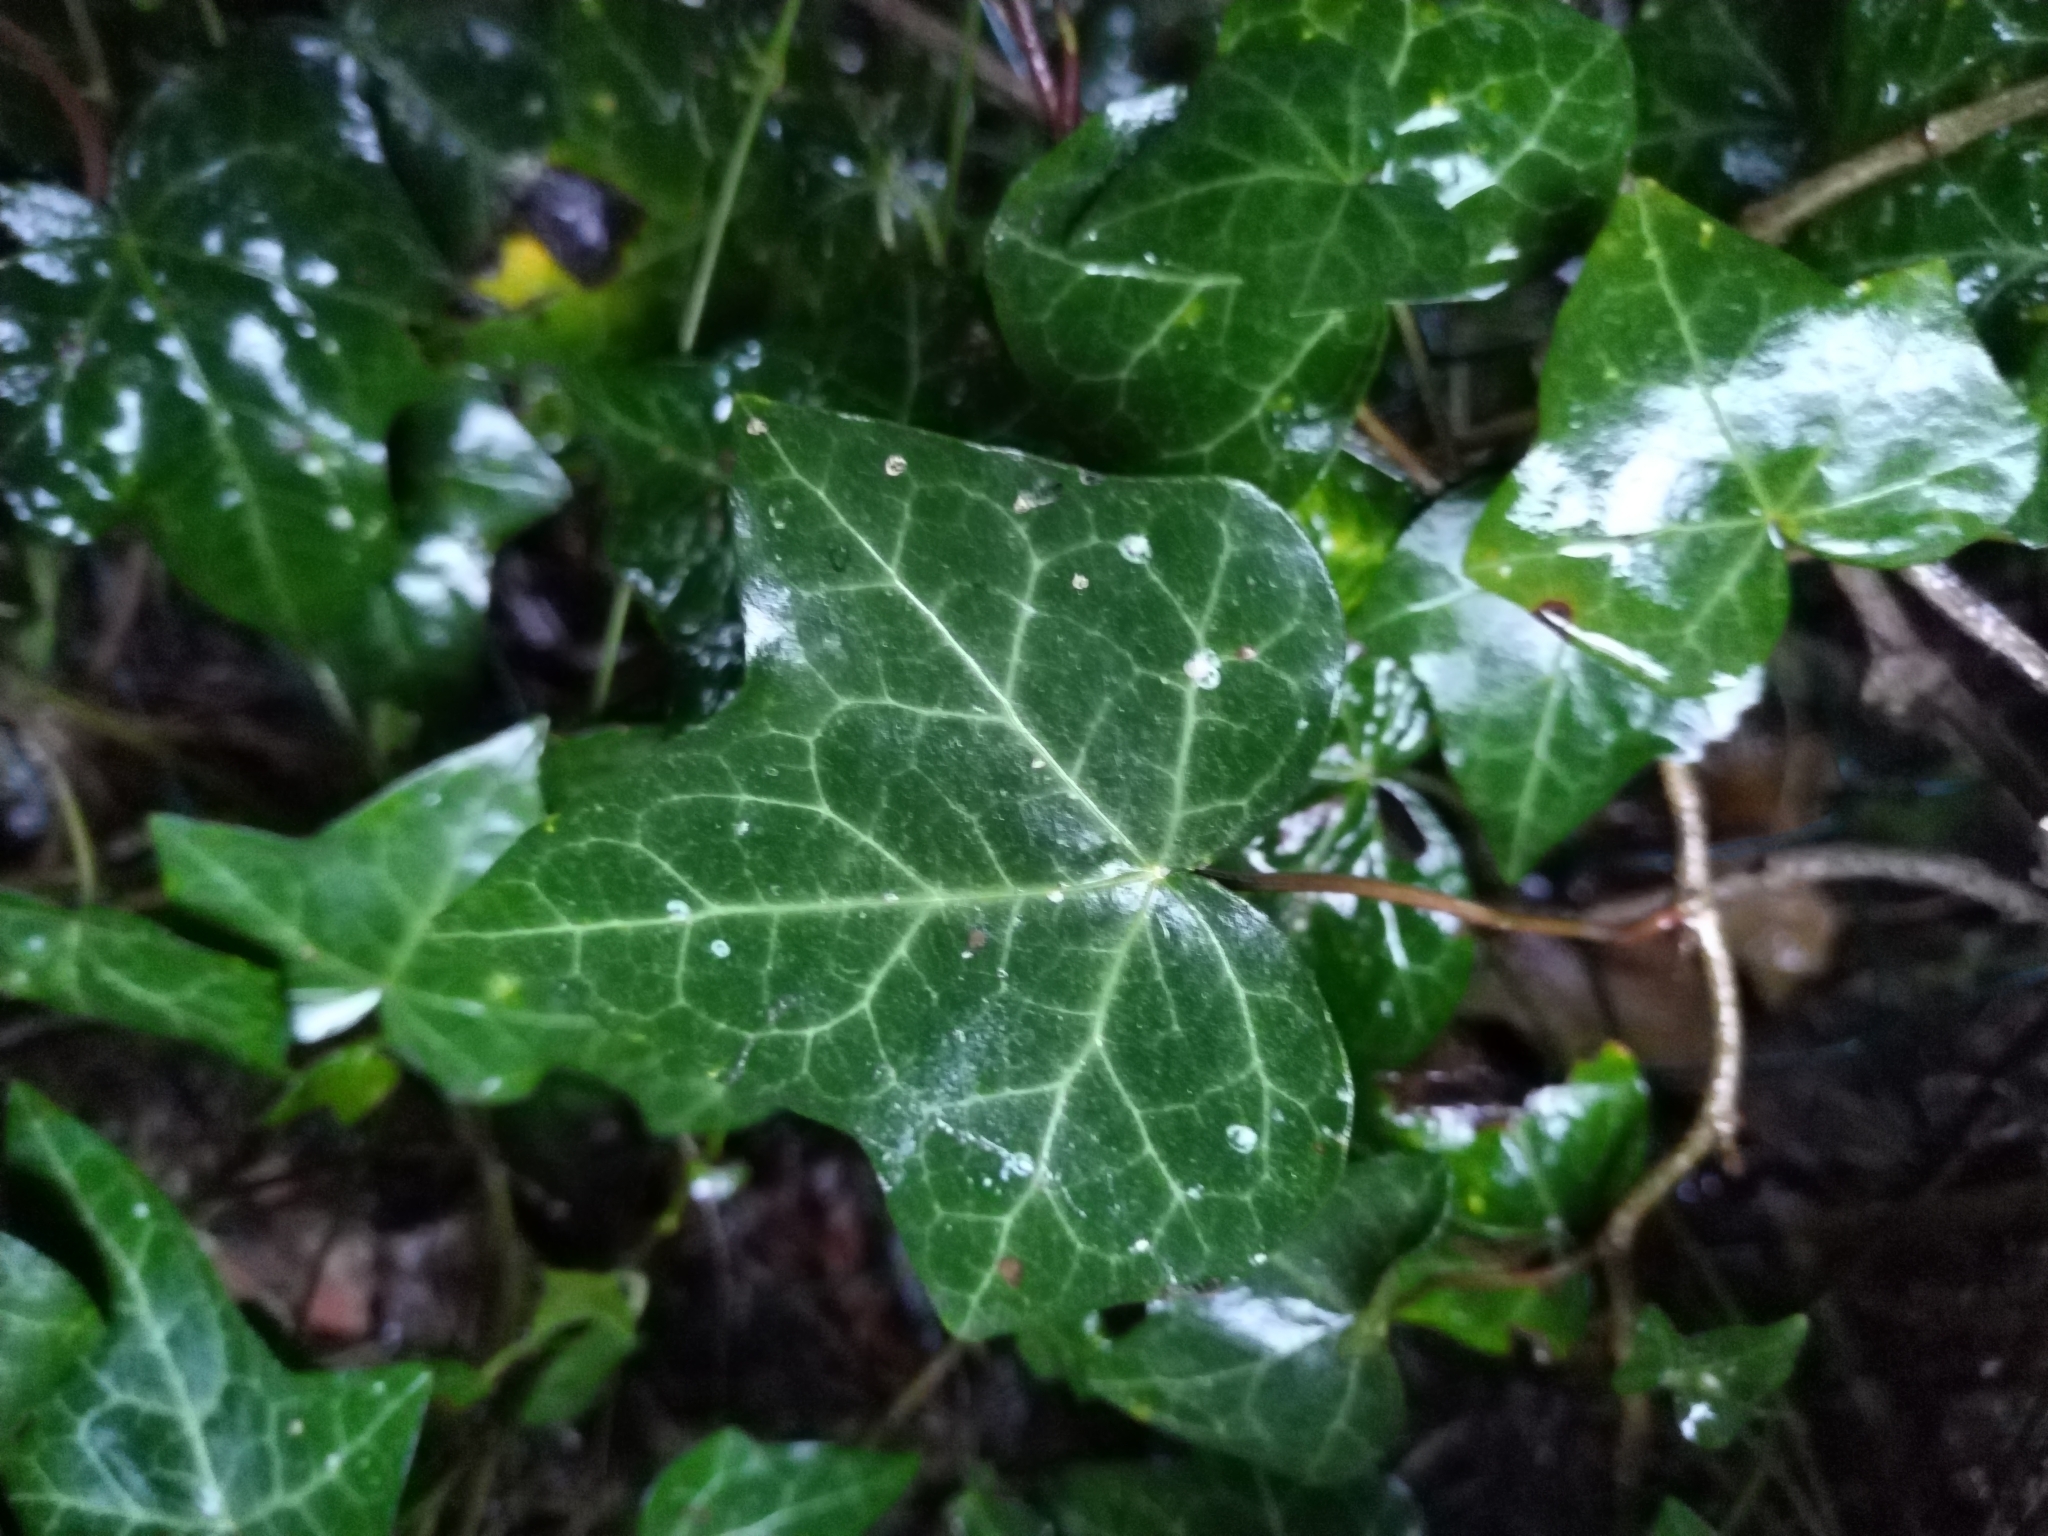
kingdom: Plantae
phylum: Tracheophyta
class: Magnoliopsida
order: Apiales
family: Araliaceae
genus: Hedera
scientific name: Hedera helix
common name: Ivy
